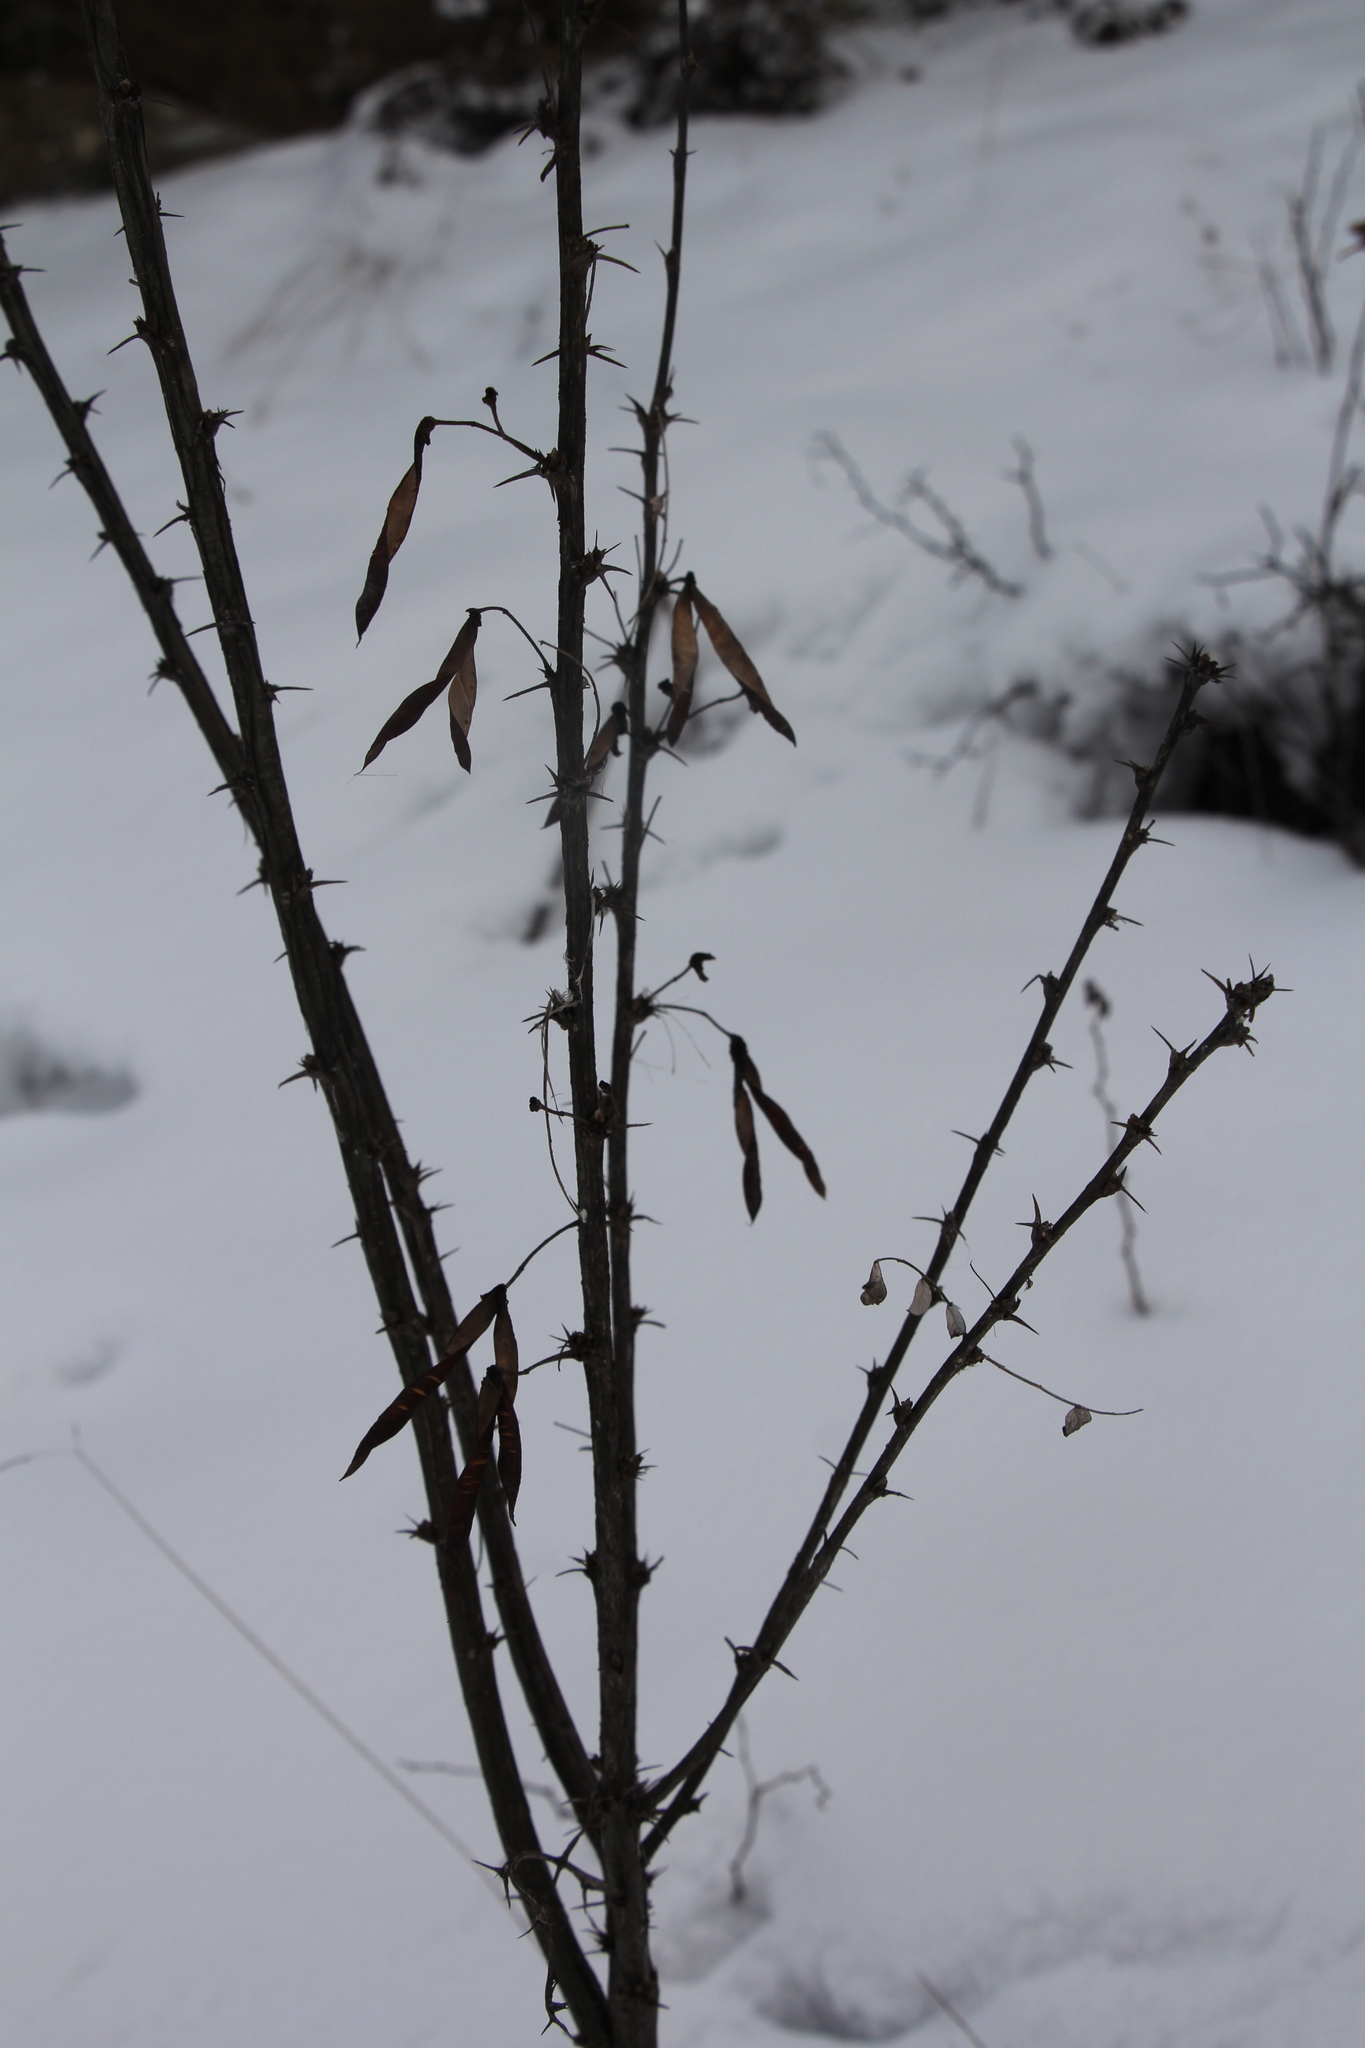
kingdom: Plantae
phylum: Tracheophyta
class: Magnoliopsida
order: Fabales
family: Fabaceae
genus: Caragana
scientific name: Caragana arborescens
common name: Siberian peashrub
